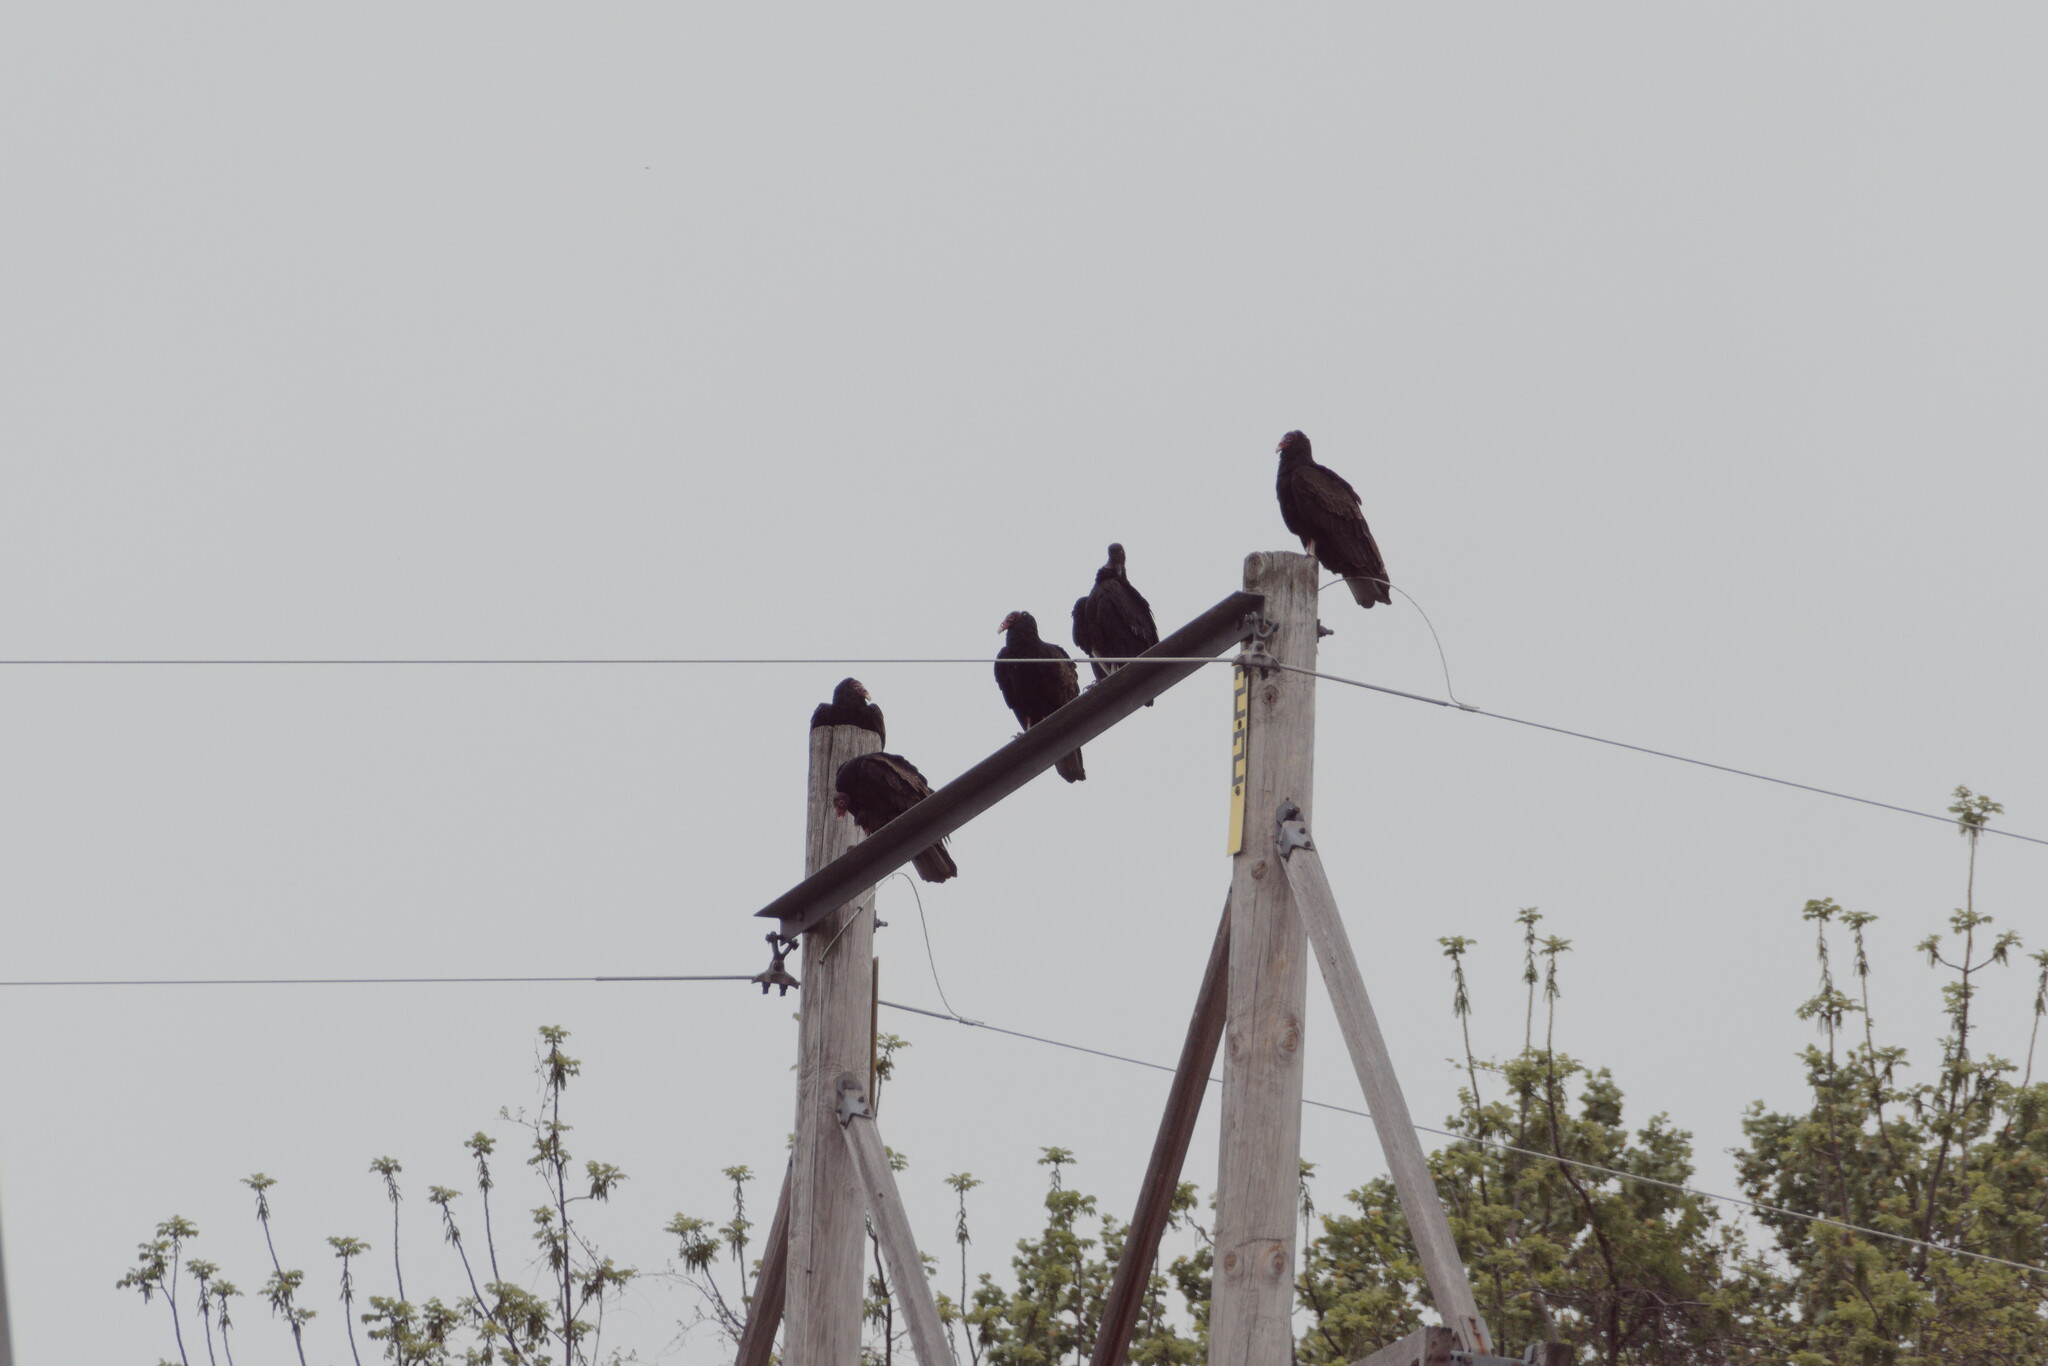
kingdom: Animalia
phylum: Chordata
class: Aves
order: Accipitriformes
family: Cathartidae
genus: Cathartes
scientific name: Cathartes aura
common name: Turkey vulture
